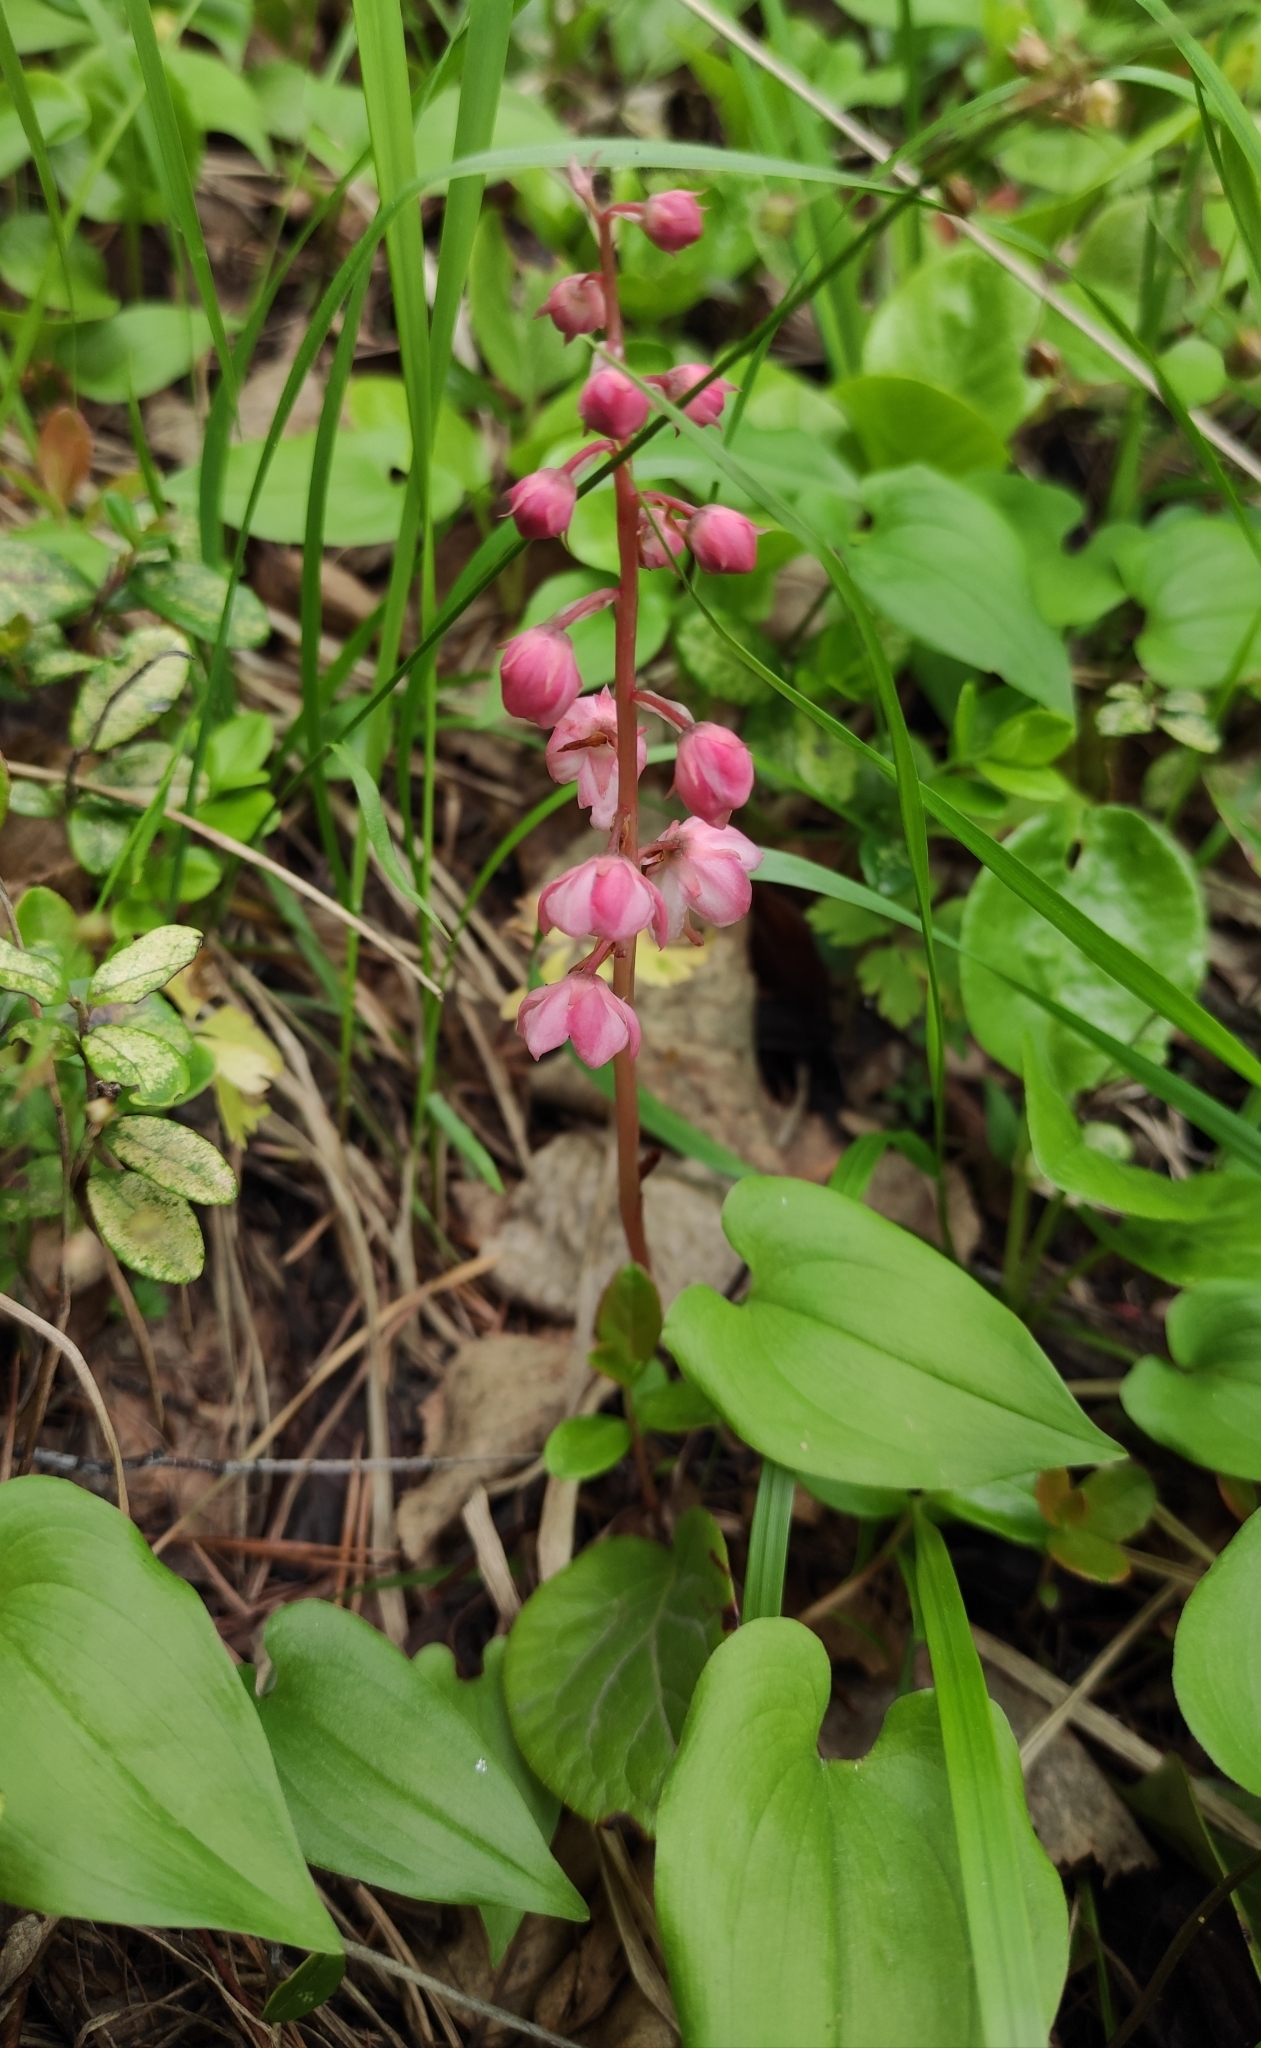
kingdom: Plantae
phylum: Tracheophyta
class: Magnoliopsida
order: Ericales
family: Ericaceae
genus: Pyrola
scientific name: Pyrola asarifolia
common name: Bog wintergreen
